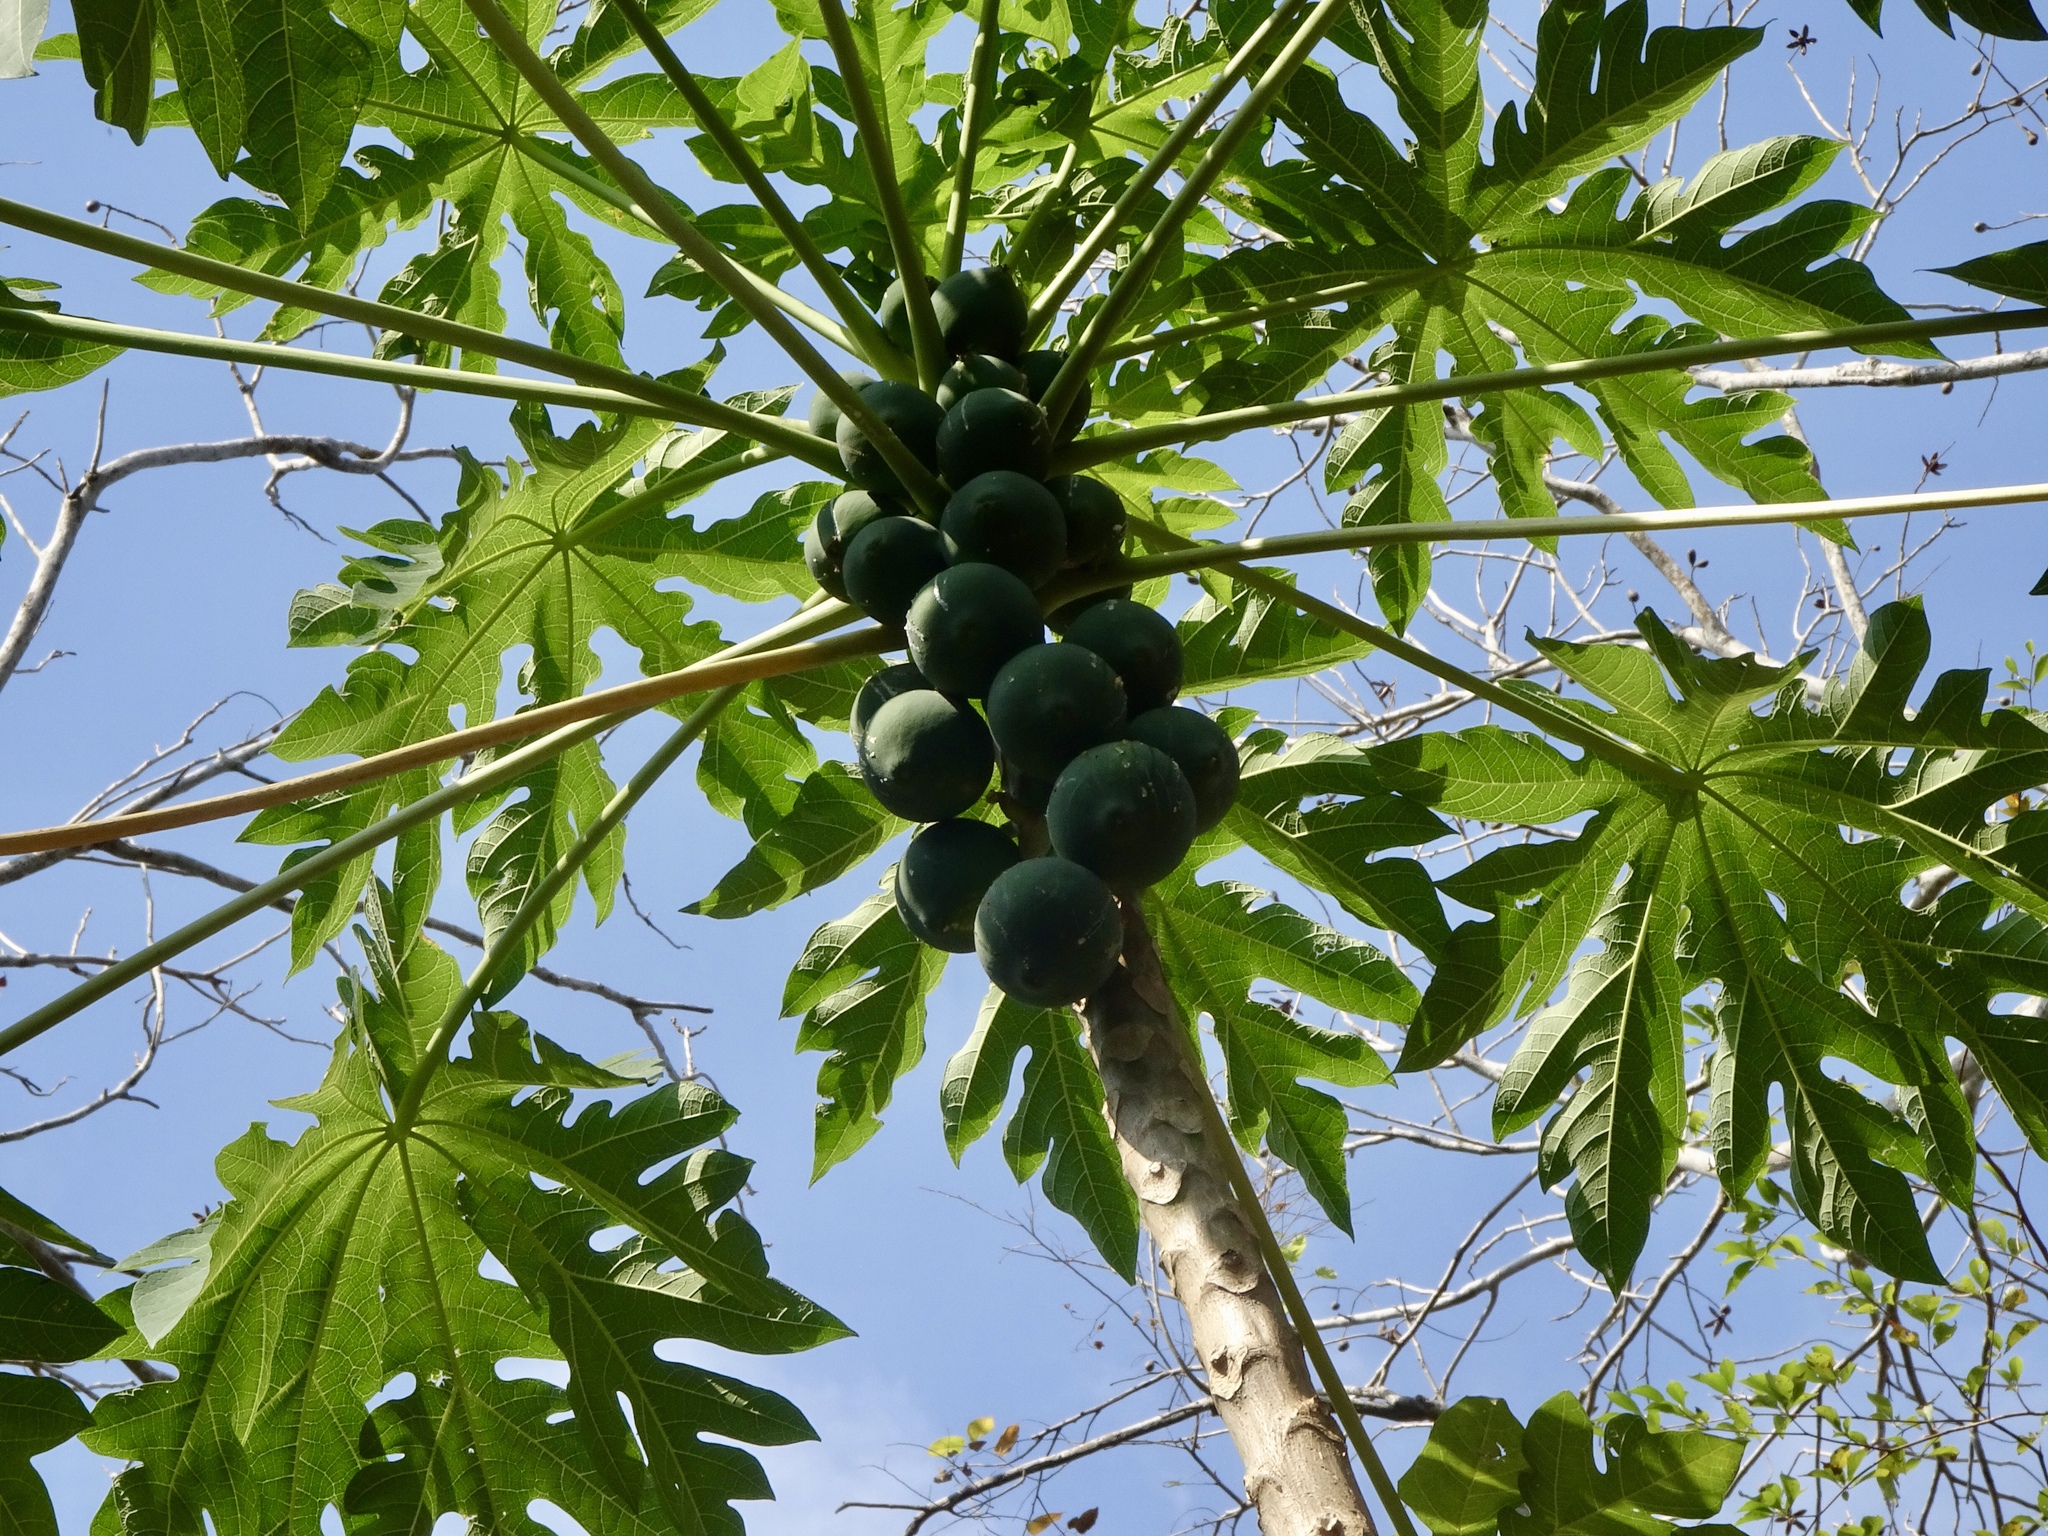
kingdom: Plantae
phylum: Tracheophyta
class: Magnoliopsida
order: Brassicales
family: Caricaceae
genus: Carica
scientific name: Carica papaya
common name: Papaya
